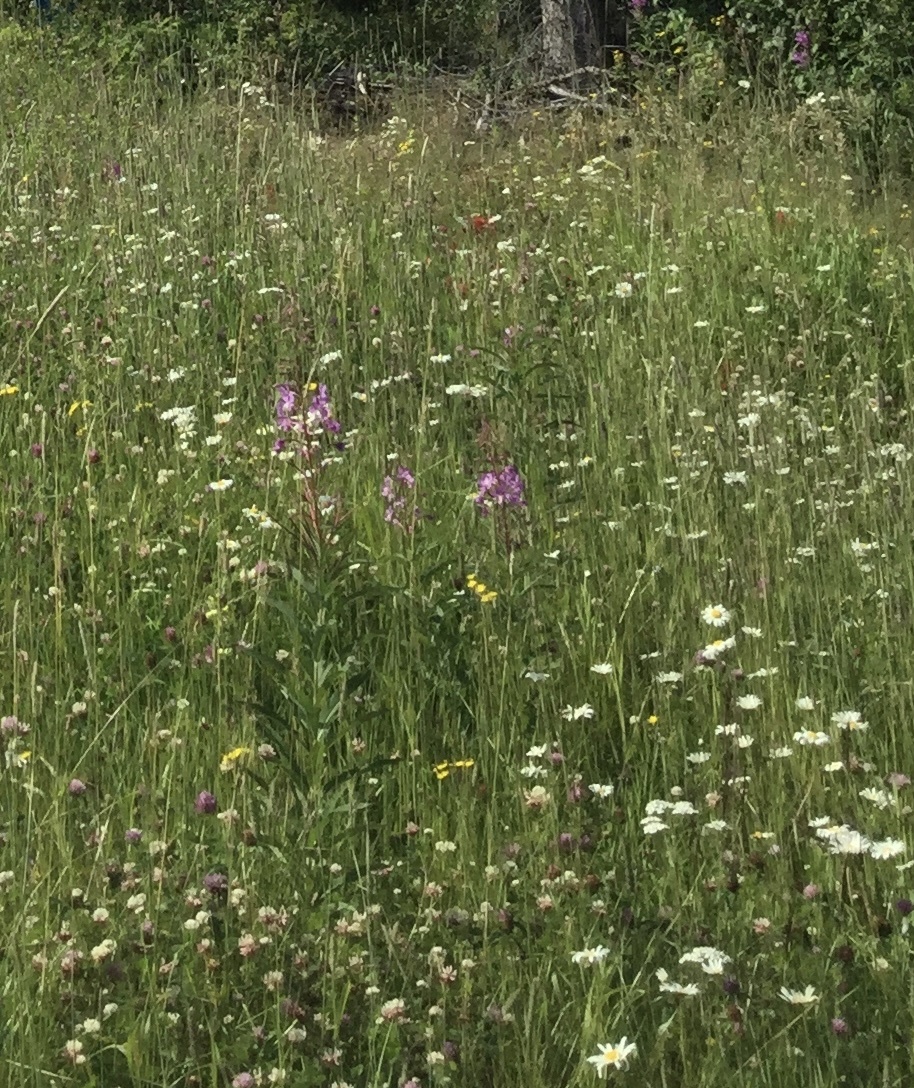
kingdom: Plantae
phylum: Tracheophyta
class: Magnoliopsida
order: Myrtales
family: Onagraceae
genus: Chamaenerion
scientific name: Chamaenerion angustifolium
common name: Fireweed
